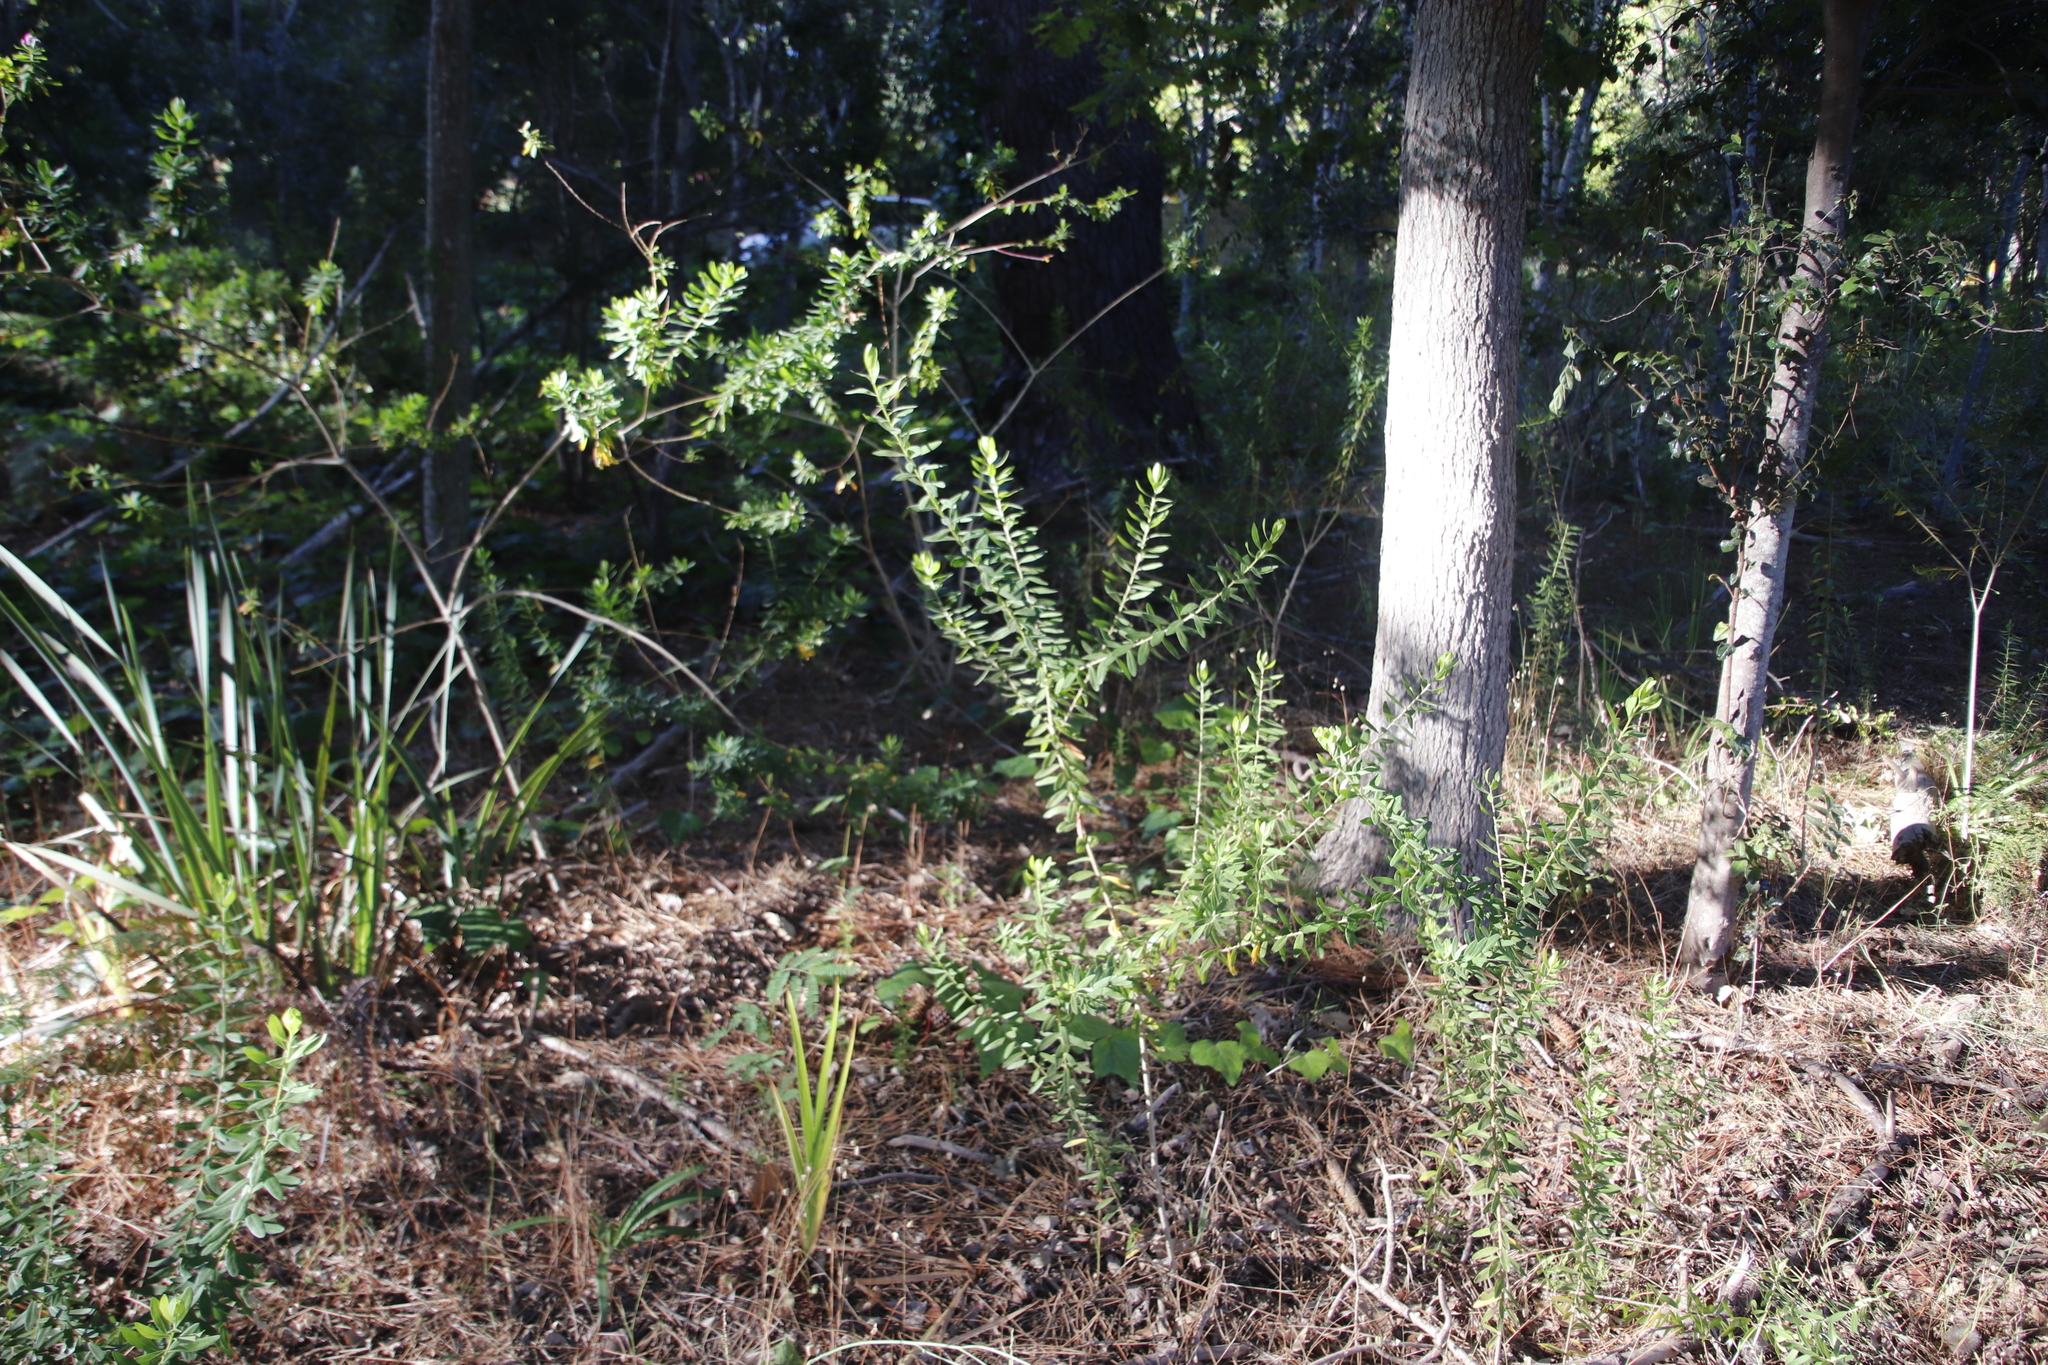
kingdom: Plantae
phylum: Tracheophyta
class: Magnoliopsida
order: Fabales
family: Polygalaceae
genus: Polygala
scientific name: Polygala myrtifolia
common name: Myrtle-leaf milkwort
